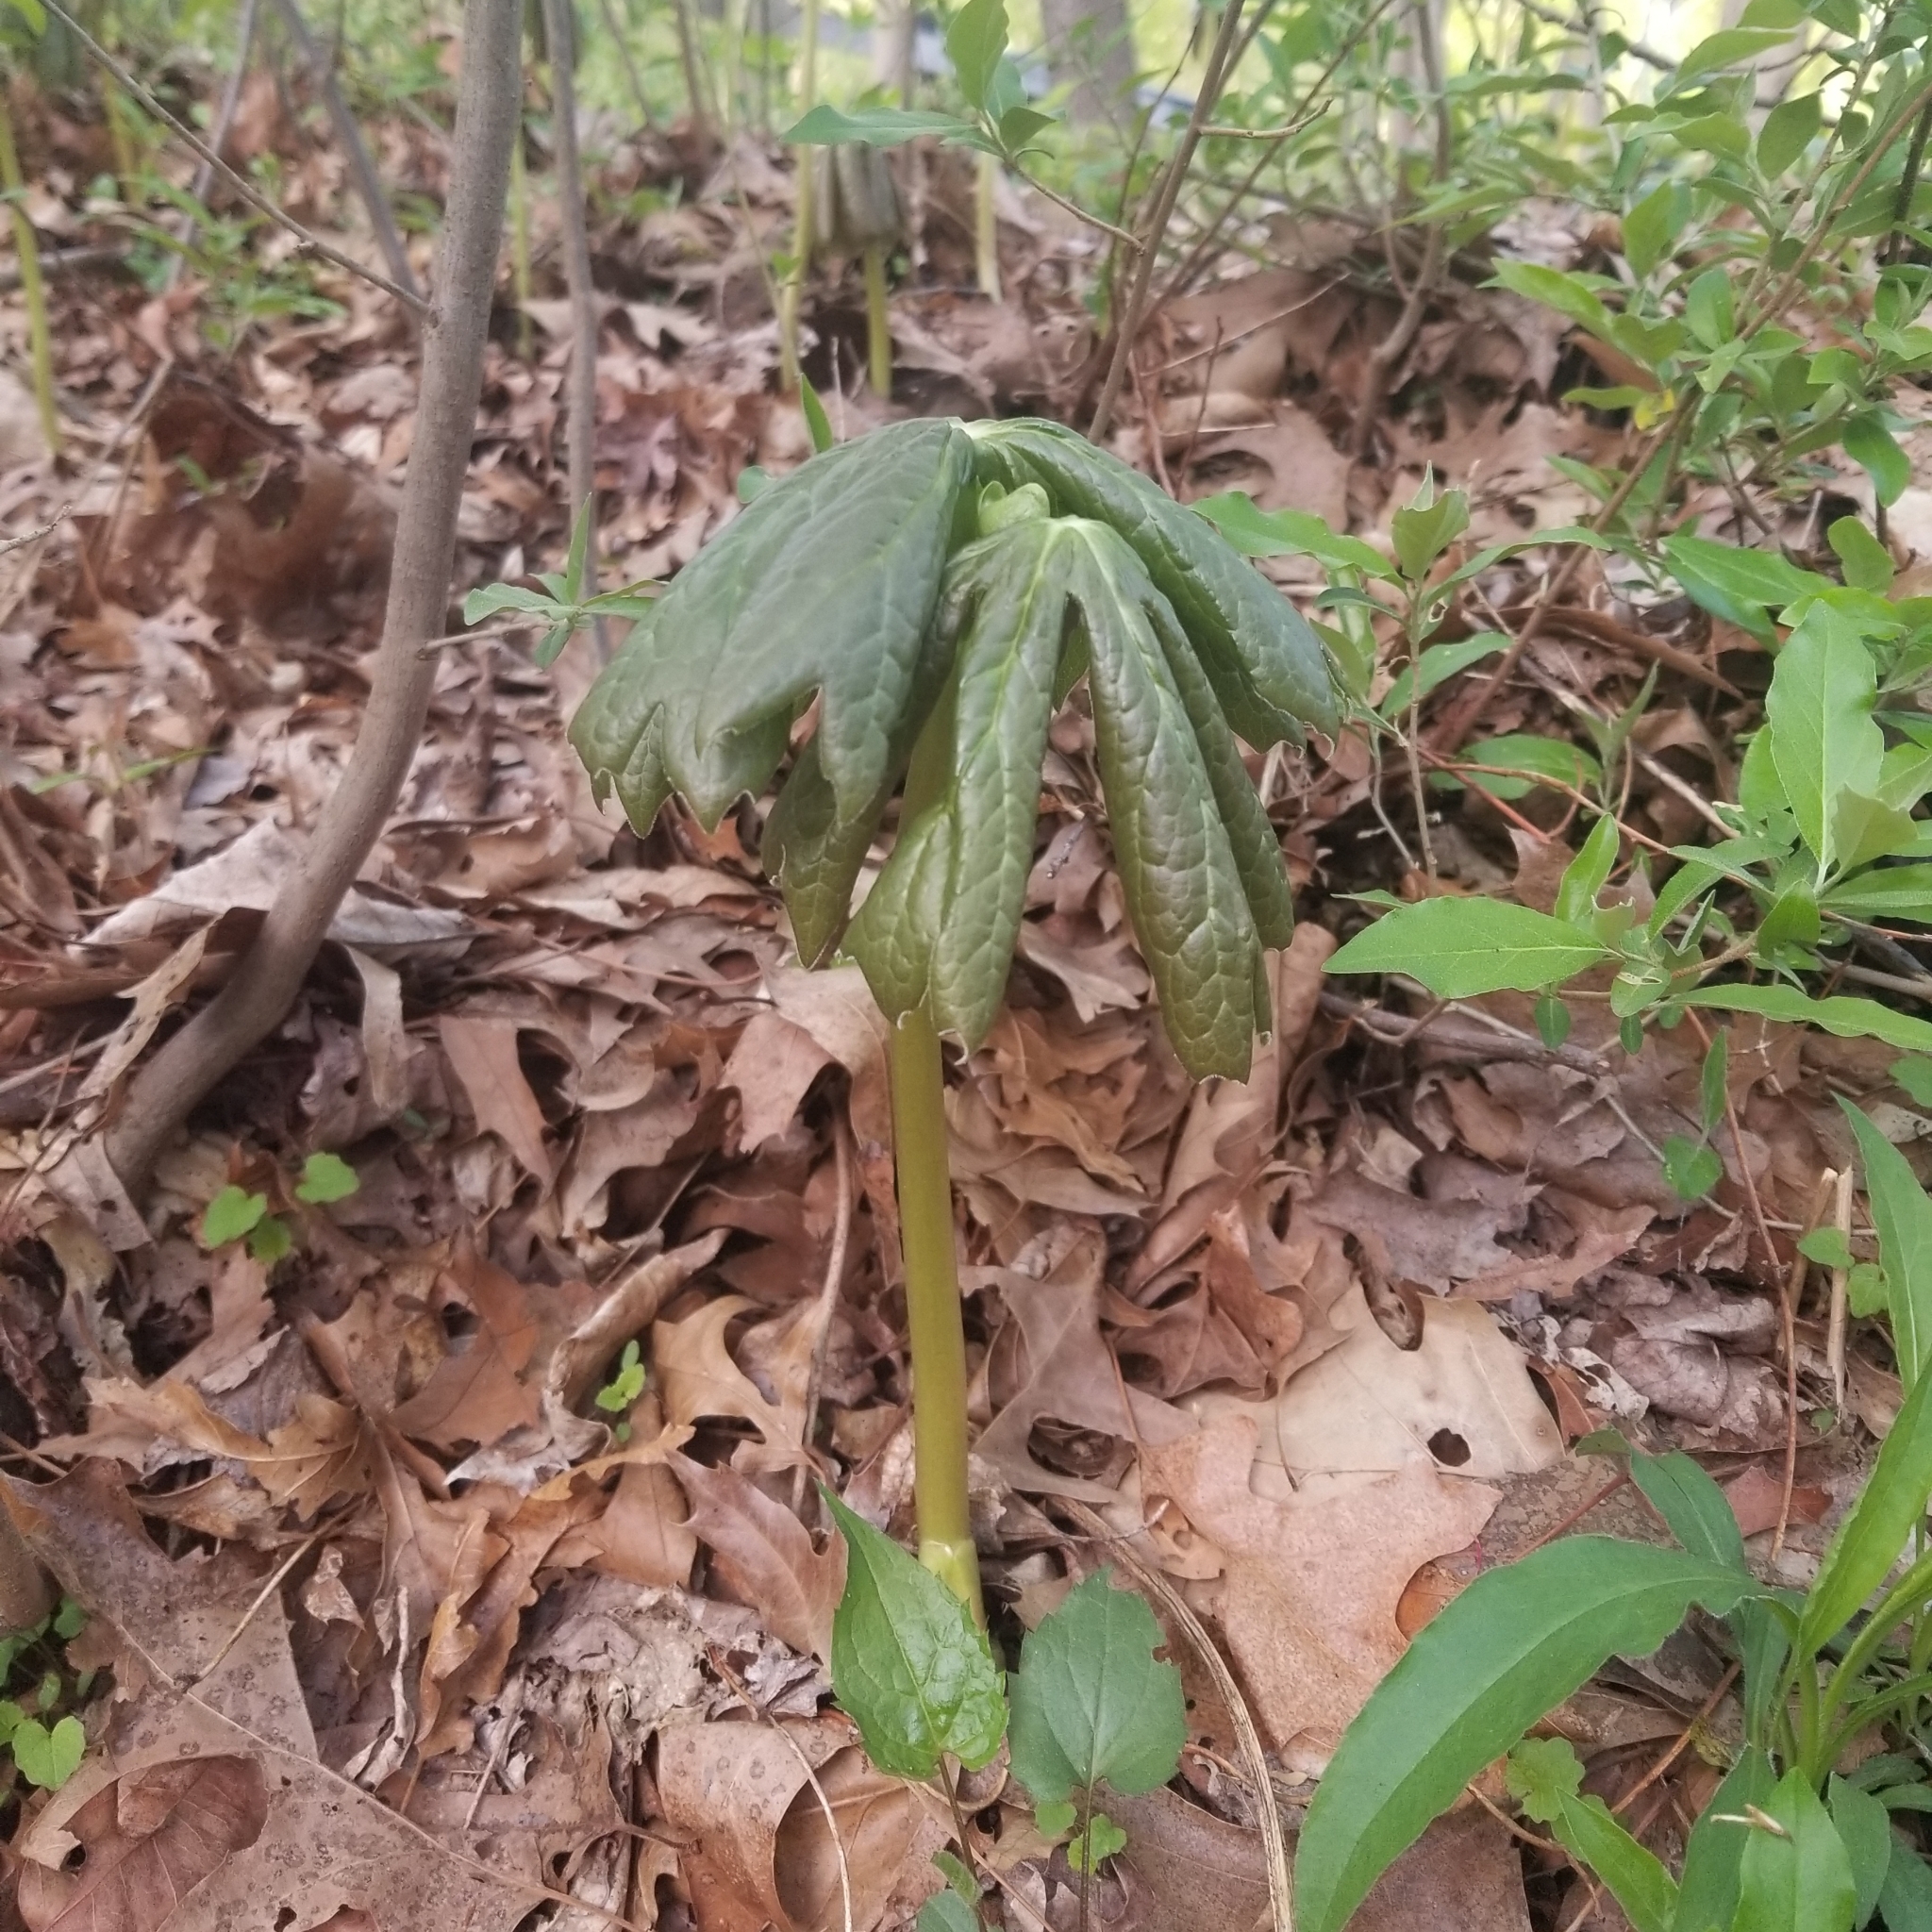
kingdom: Plantae
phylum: Tracheophyta
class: Magnoliopsida
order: Ranunculales
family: Berberidaceae
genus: Podophyllum
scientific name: Podophyllum peltatum
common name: Wild mandrake
